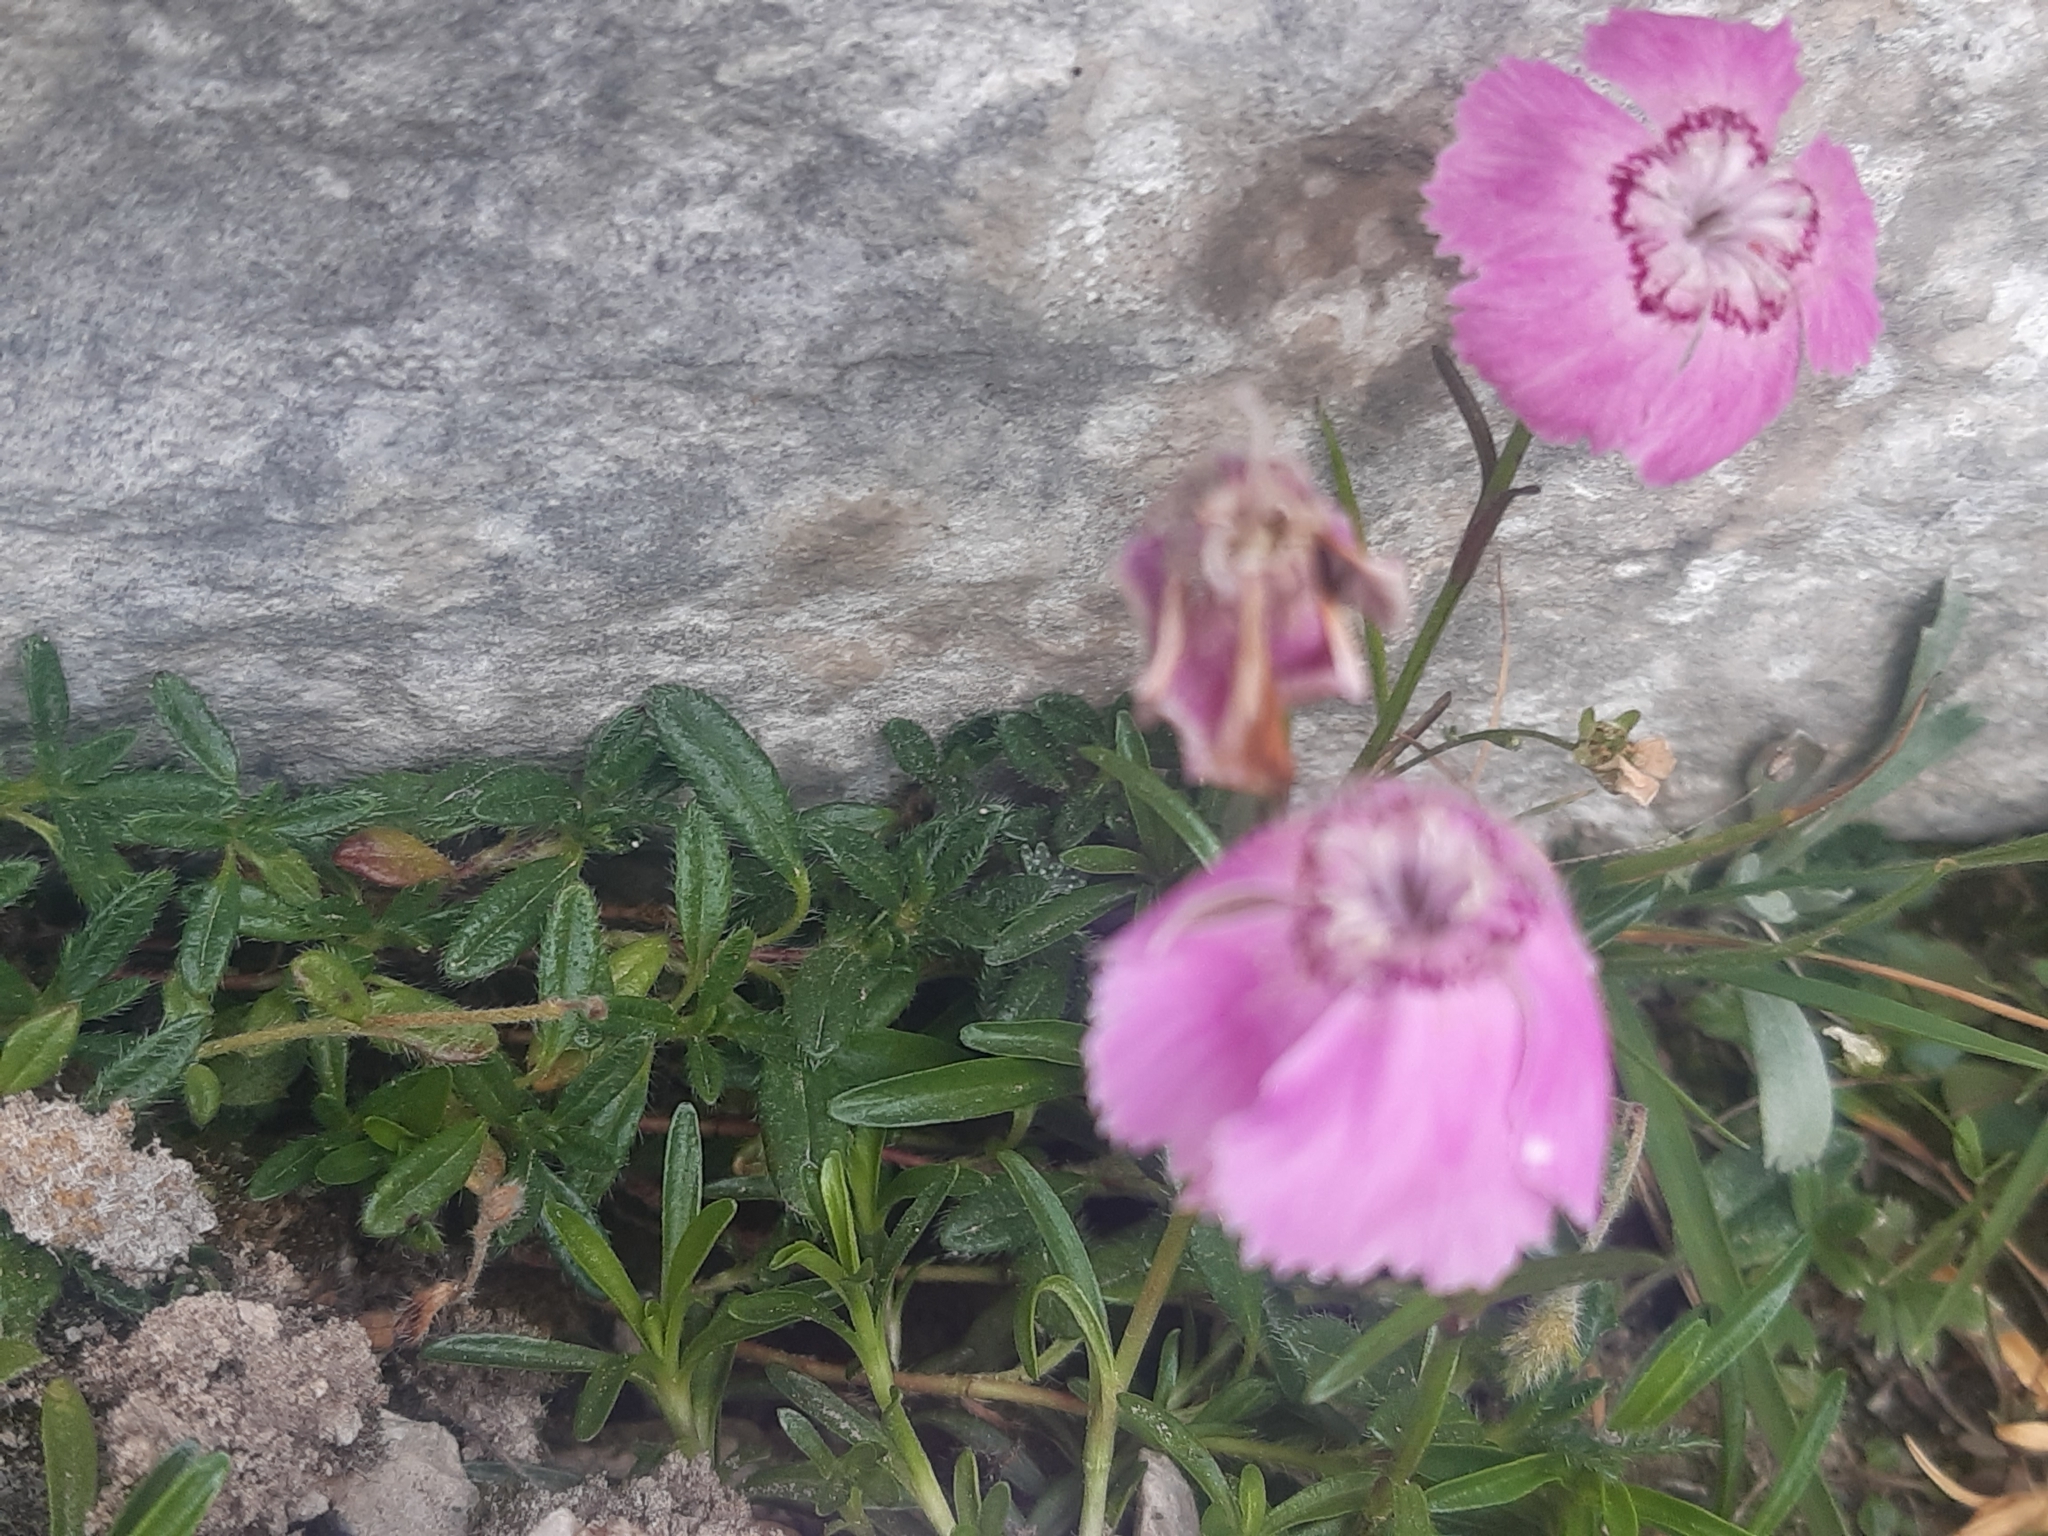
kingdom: Plantae
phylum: Tracheophyta
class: Magnoliopsida
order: Caryophyllales
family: Caryophyllaceae
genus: Dianthus
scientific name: Dianthus alpinus
